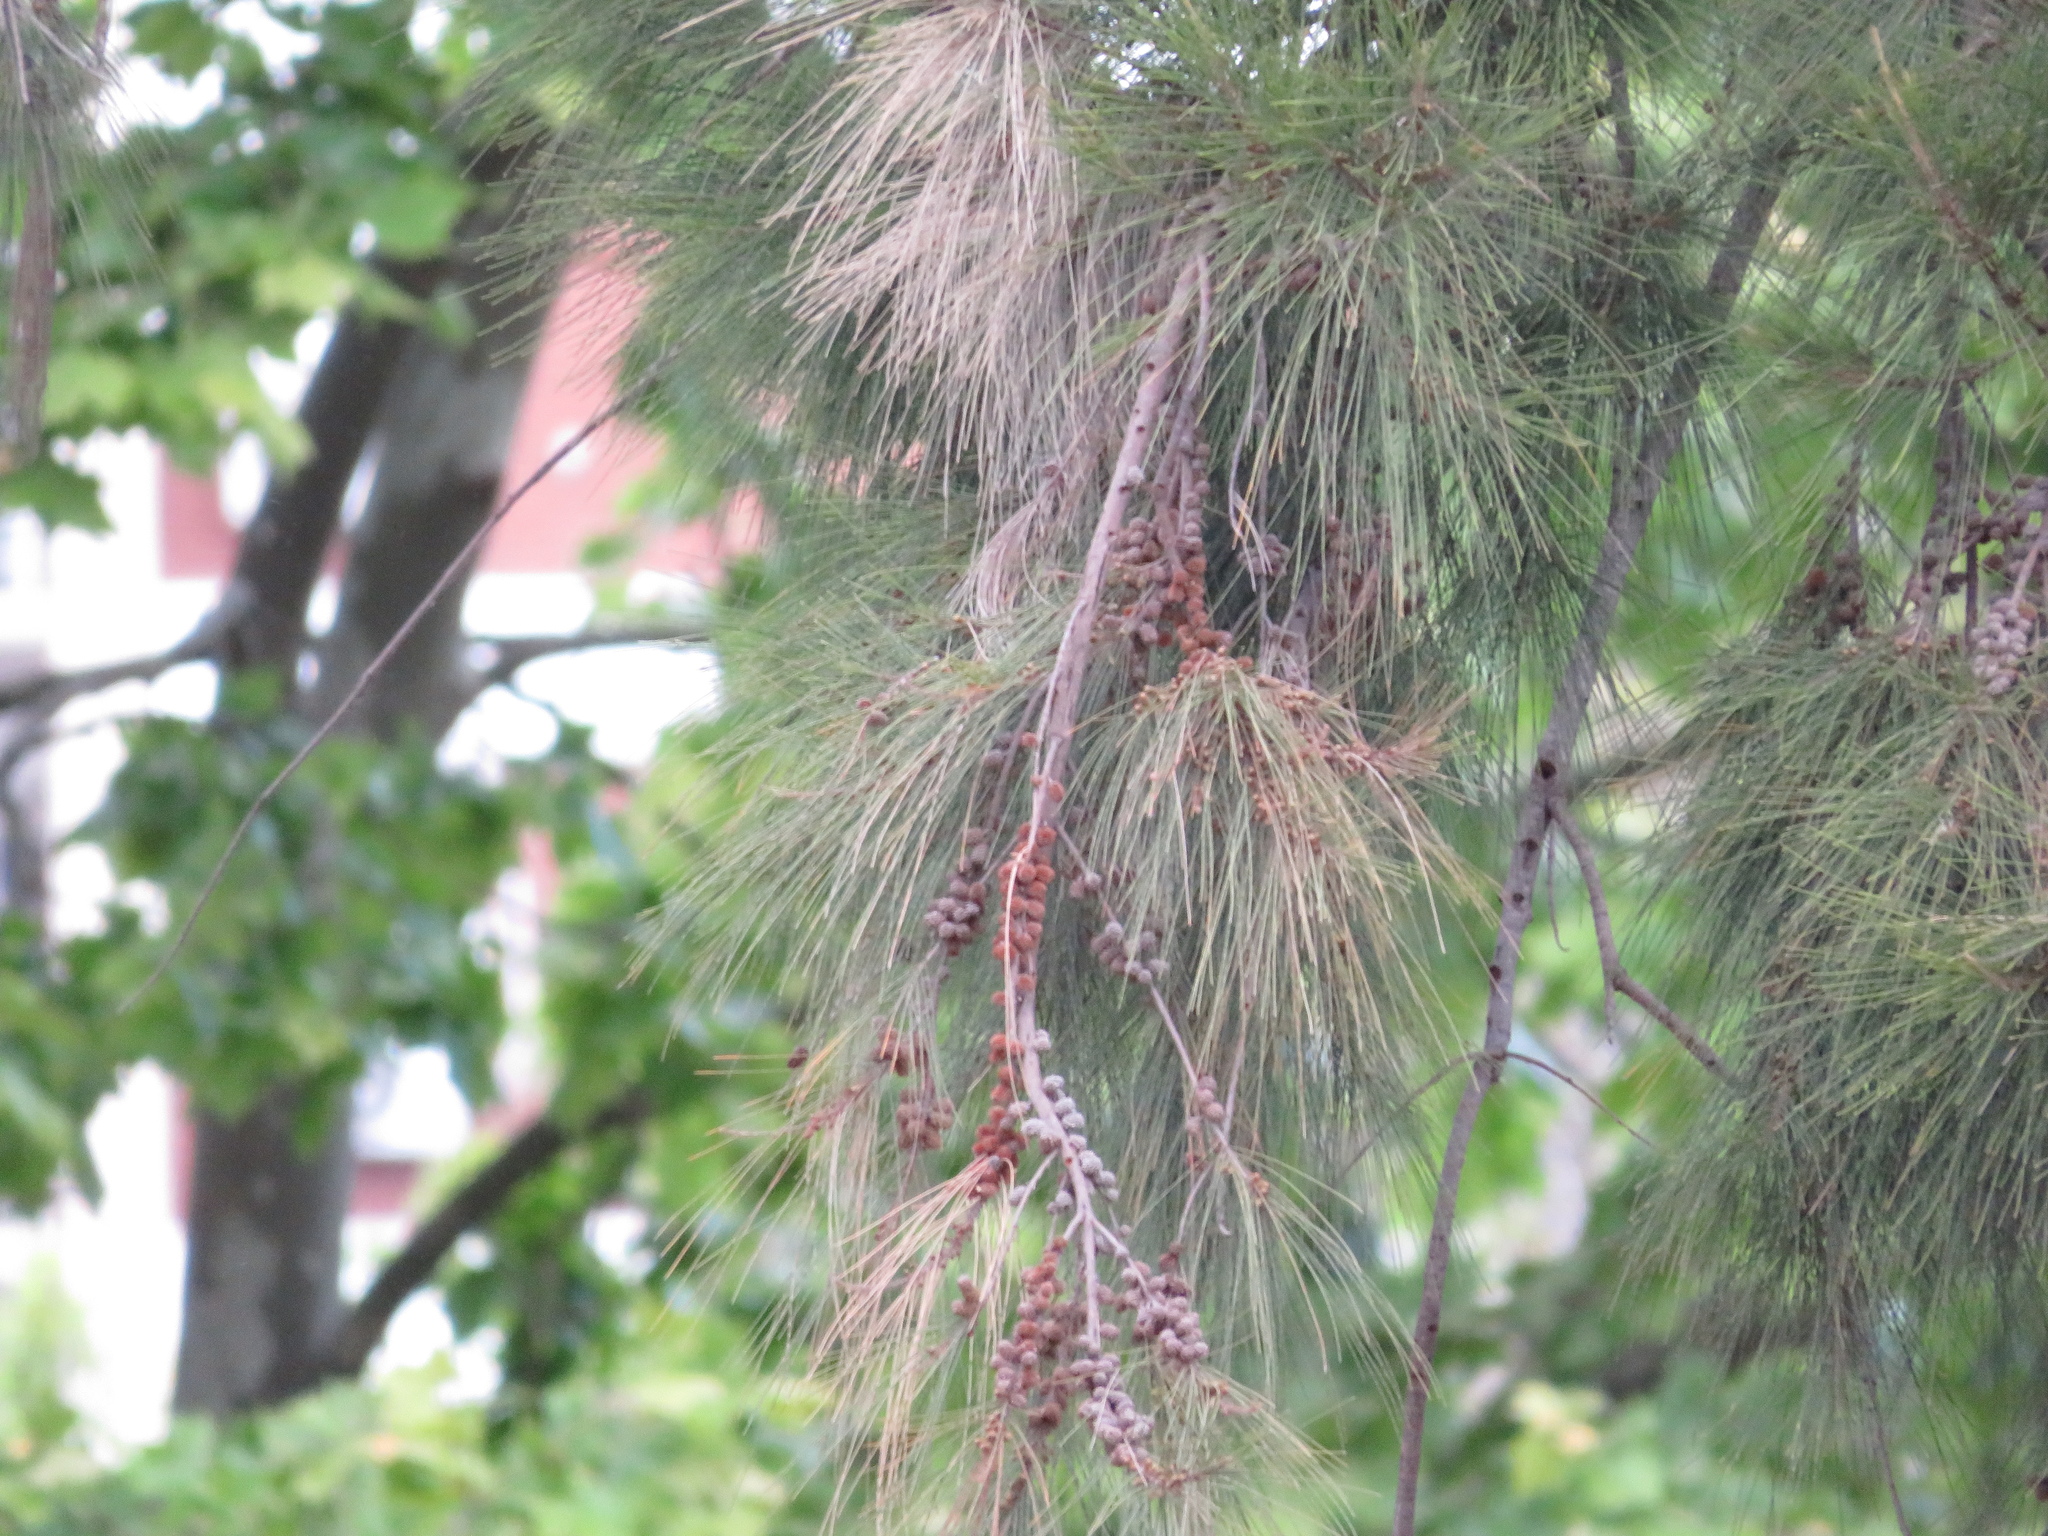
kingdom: Plantae
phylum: Tracheophyta
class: Magnoliopsida
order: Fagales
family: Casuarinaceae
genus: Casuarina
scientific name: Casuarina cunninghamiana
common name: River sheoak
